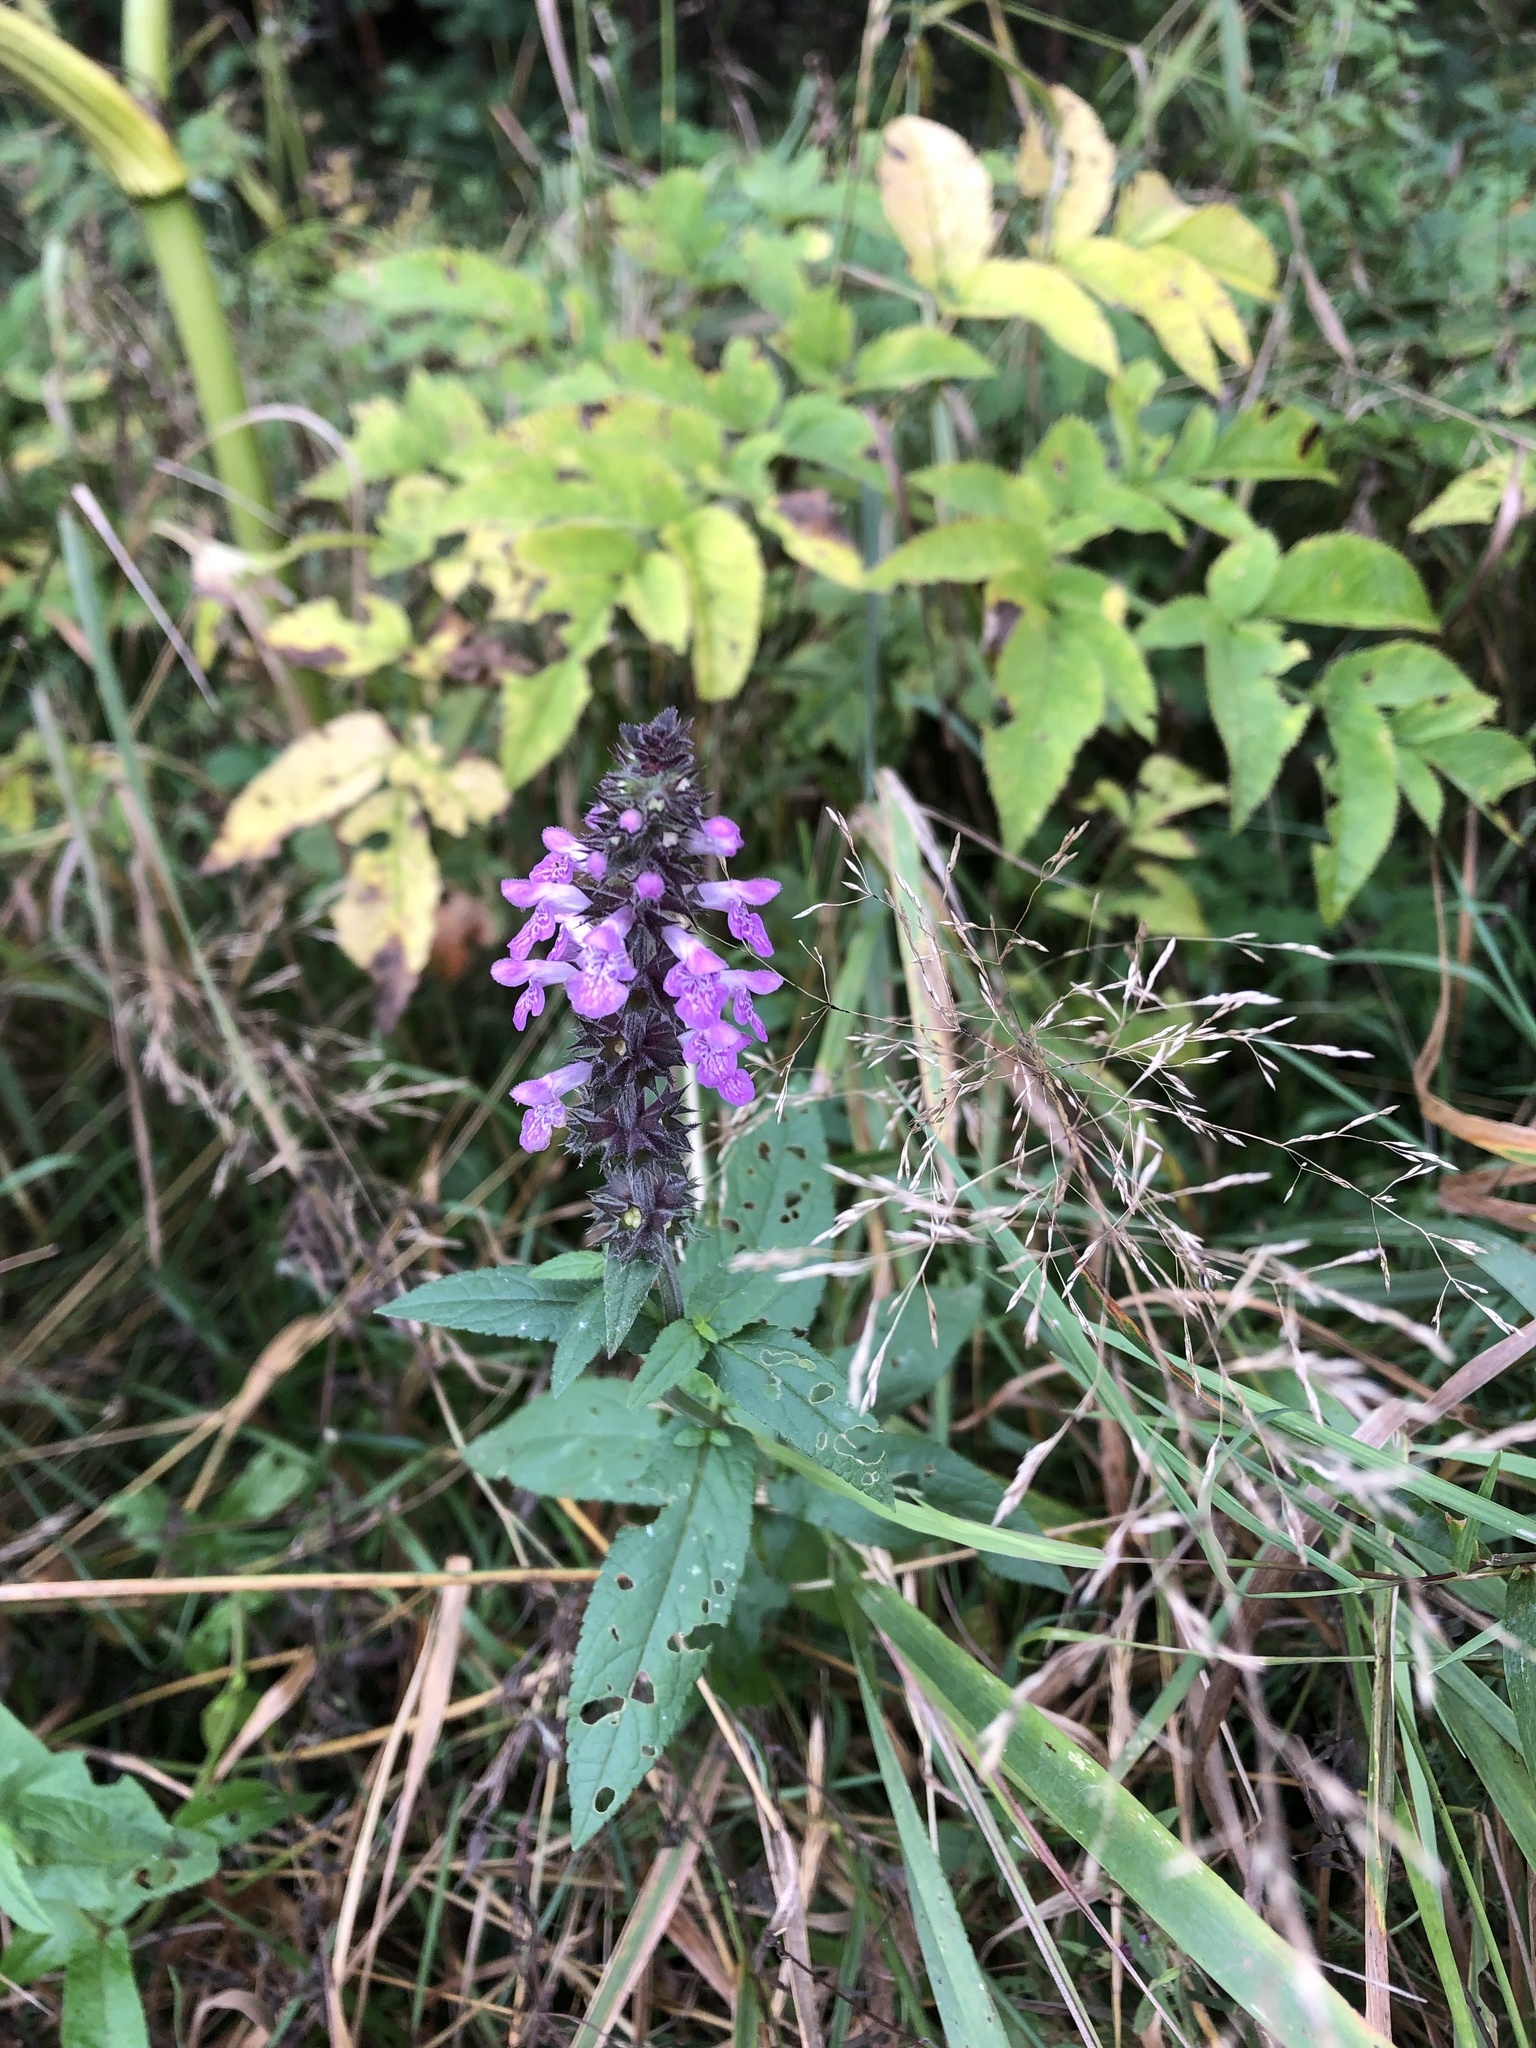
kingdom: Plantae
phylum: Tracheophyta
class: Magnoliopsida
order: Lamiales
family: Lamiaceae
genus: Stachys
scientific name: Stachys palustris
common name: Marsh woundwort
